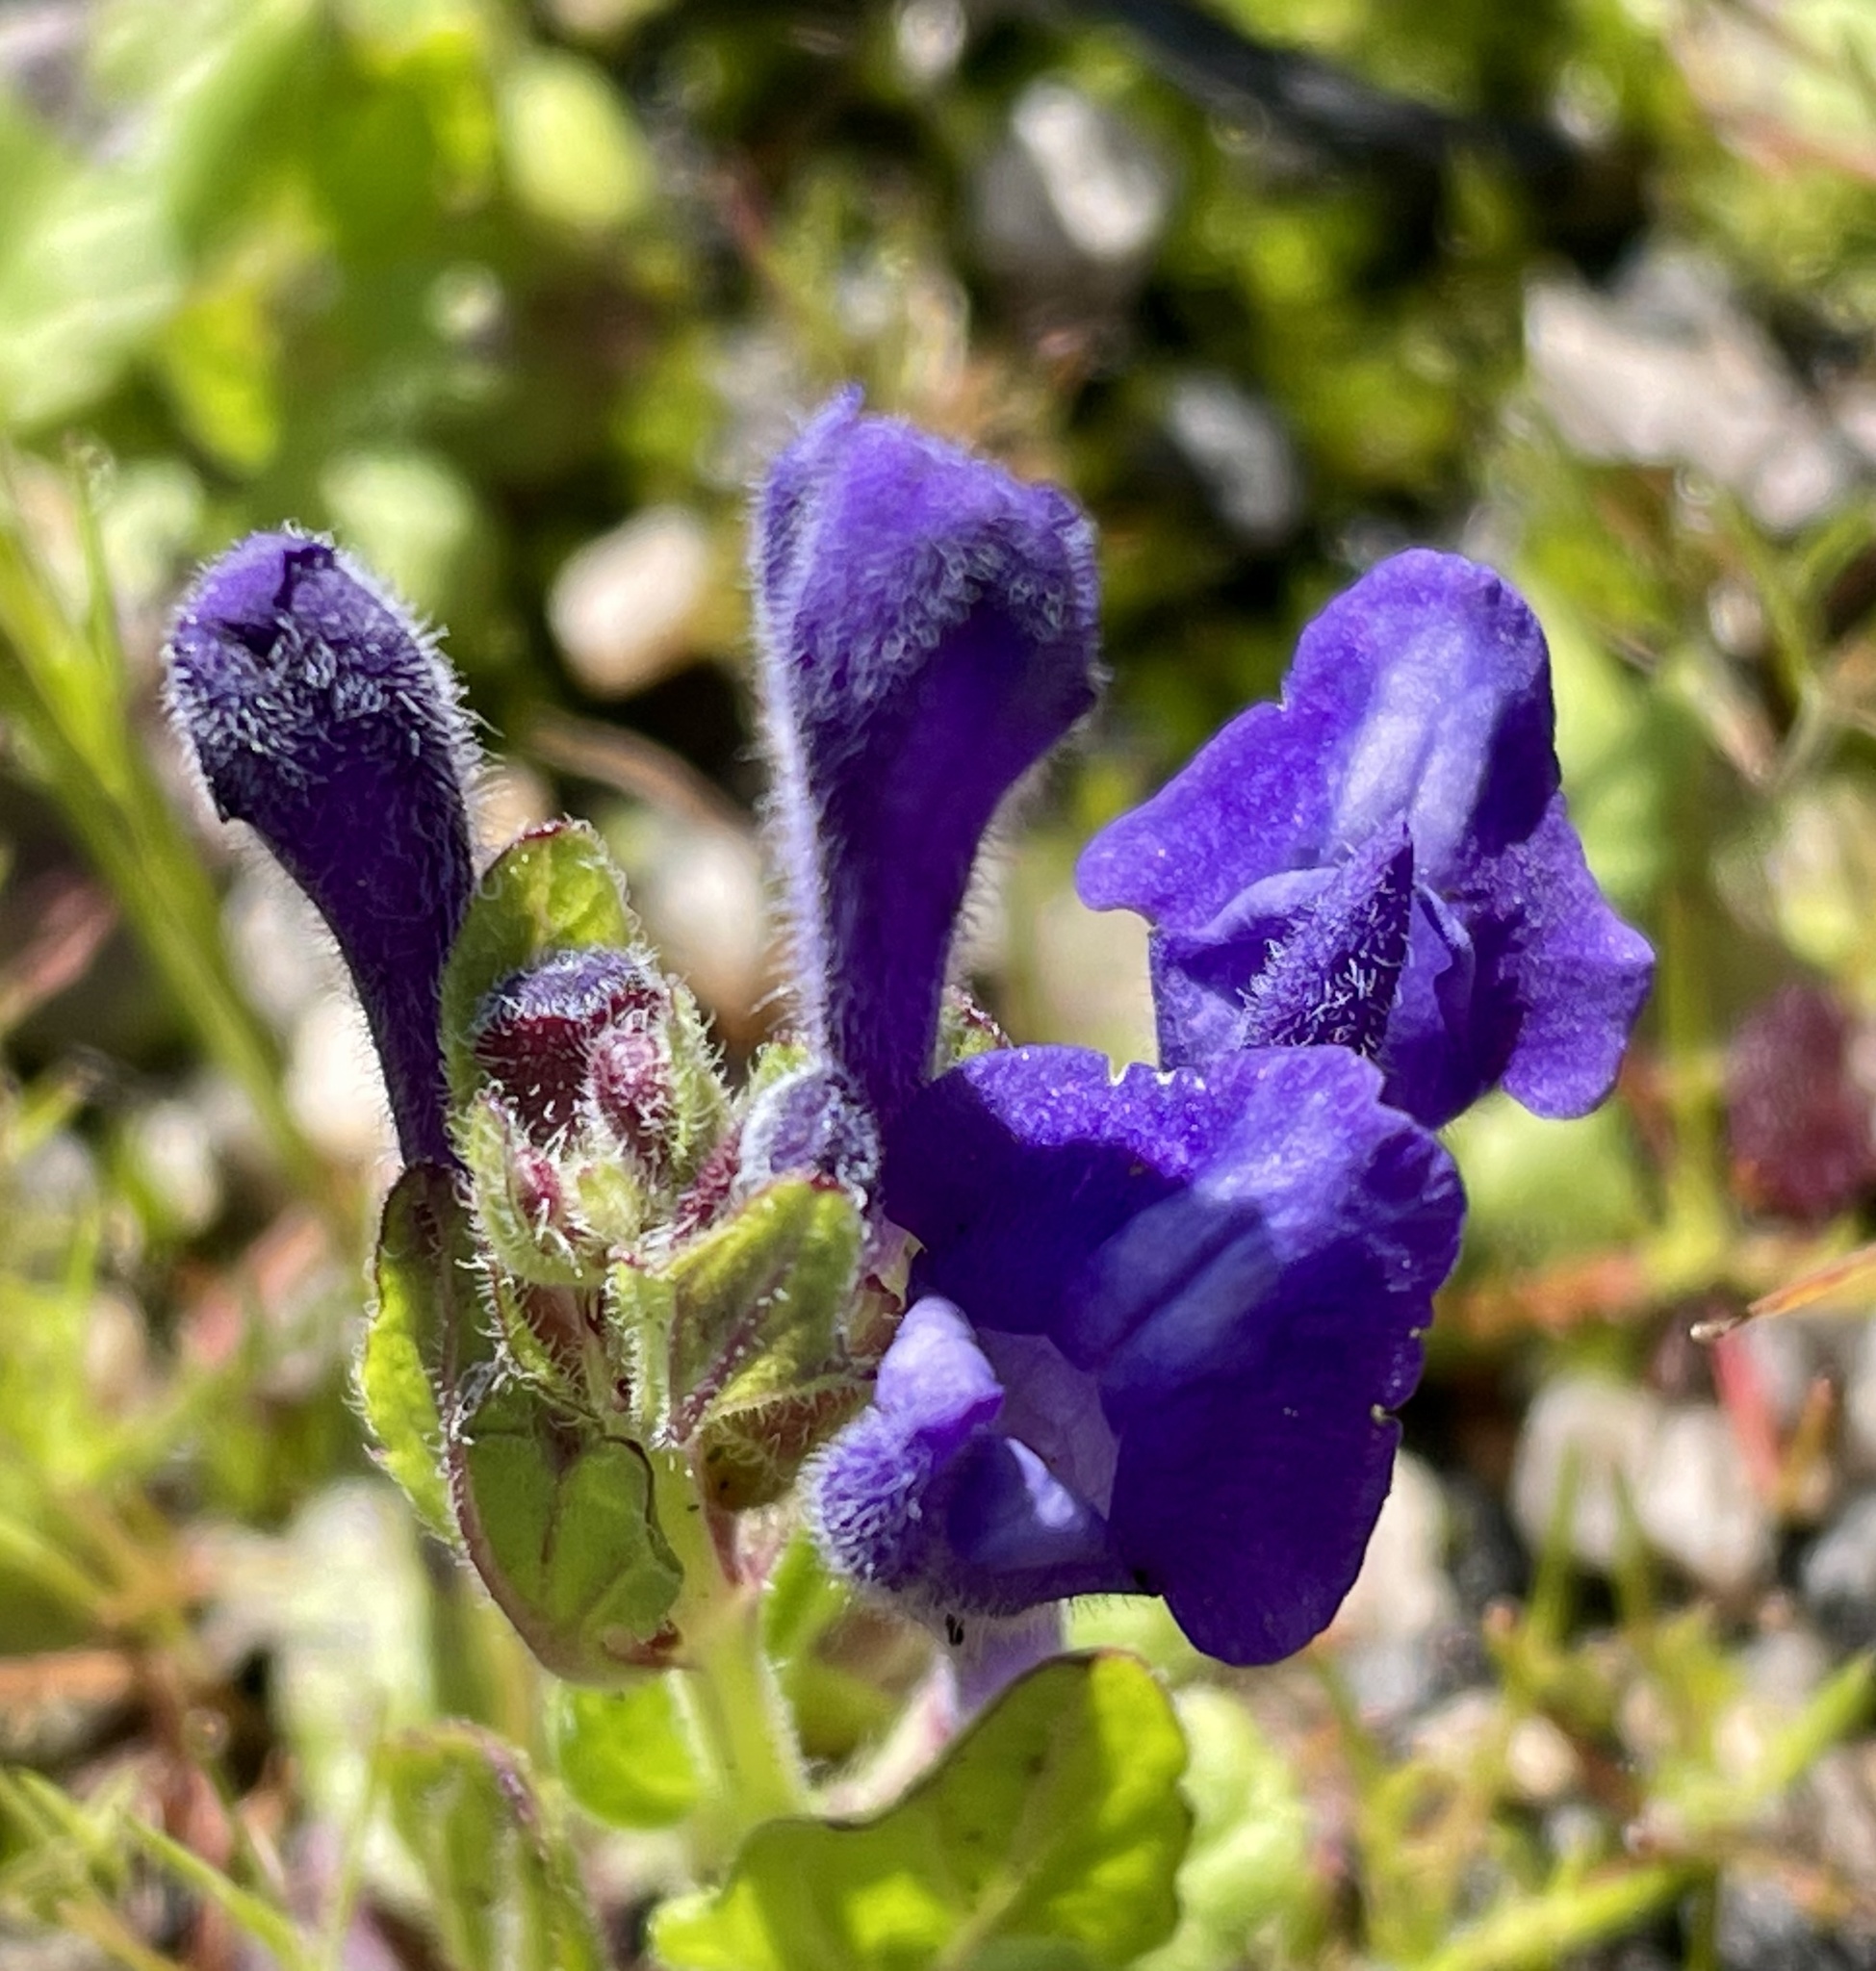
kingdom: Plantae
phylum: Tracheophyta
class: Magnoliopsida
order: Lamiales
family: Lamiaceae
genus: Scutellaria
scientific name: Scutellaria tuberosa
